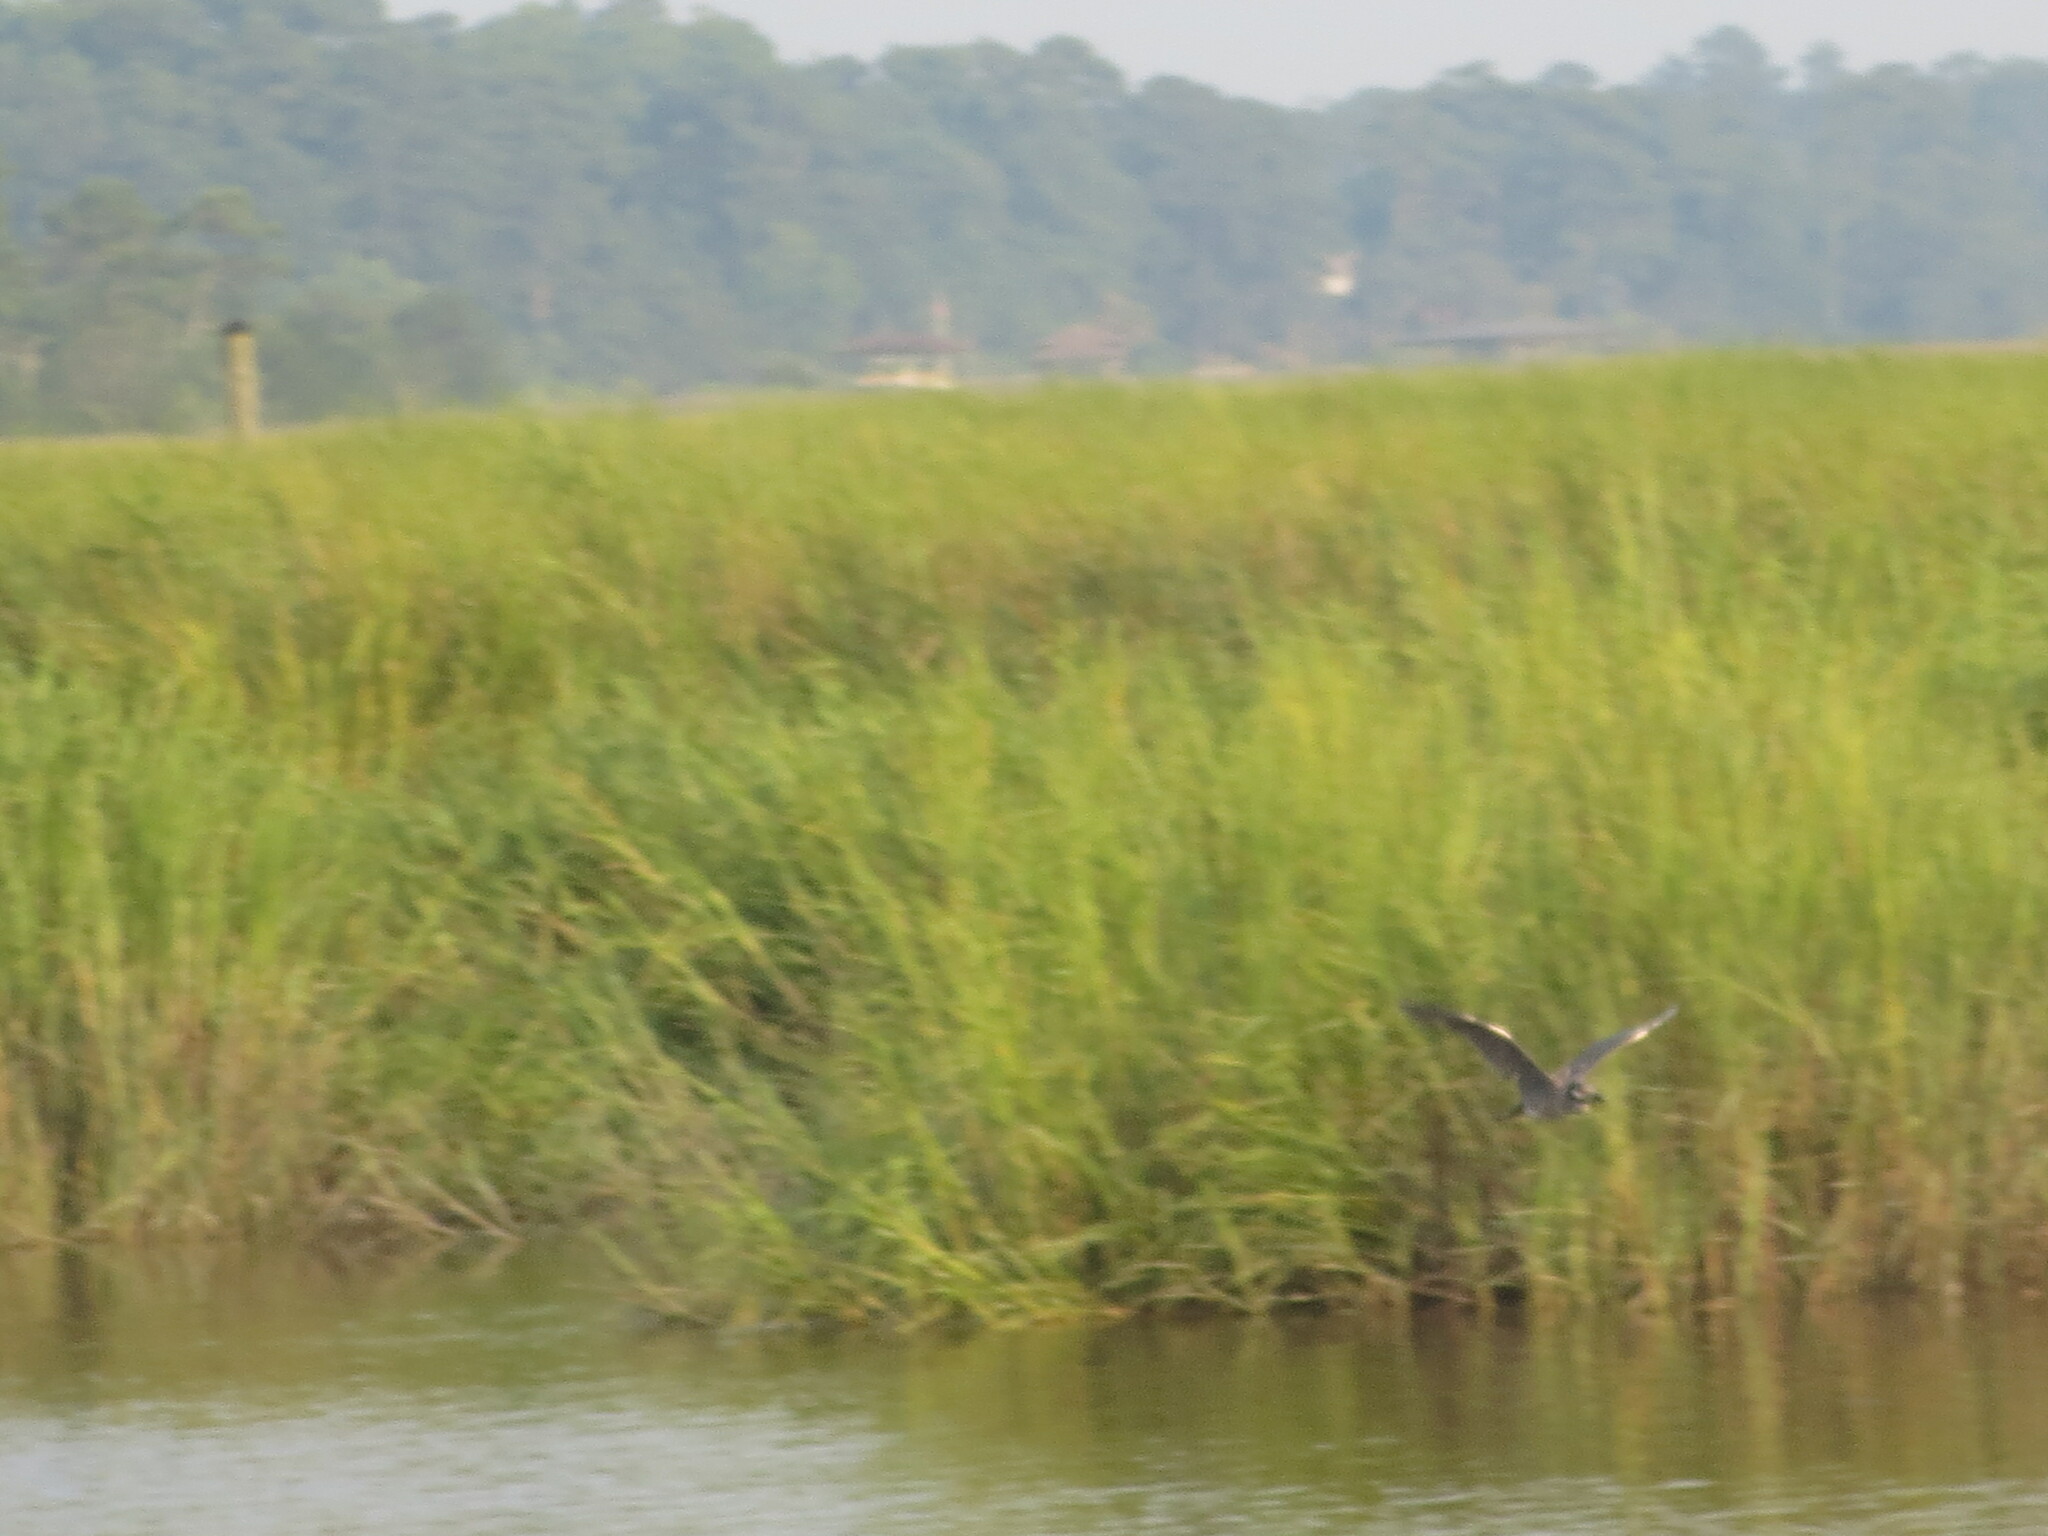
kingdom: Animalia
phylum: Chordata
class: Aves
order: Pelecaniformes
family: Ardeidae
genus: Nyctanassa
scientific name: Nyctanassa violacea
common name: Yellow-crowned night heron
